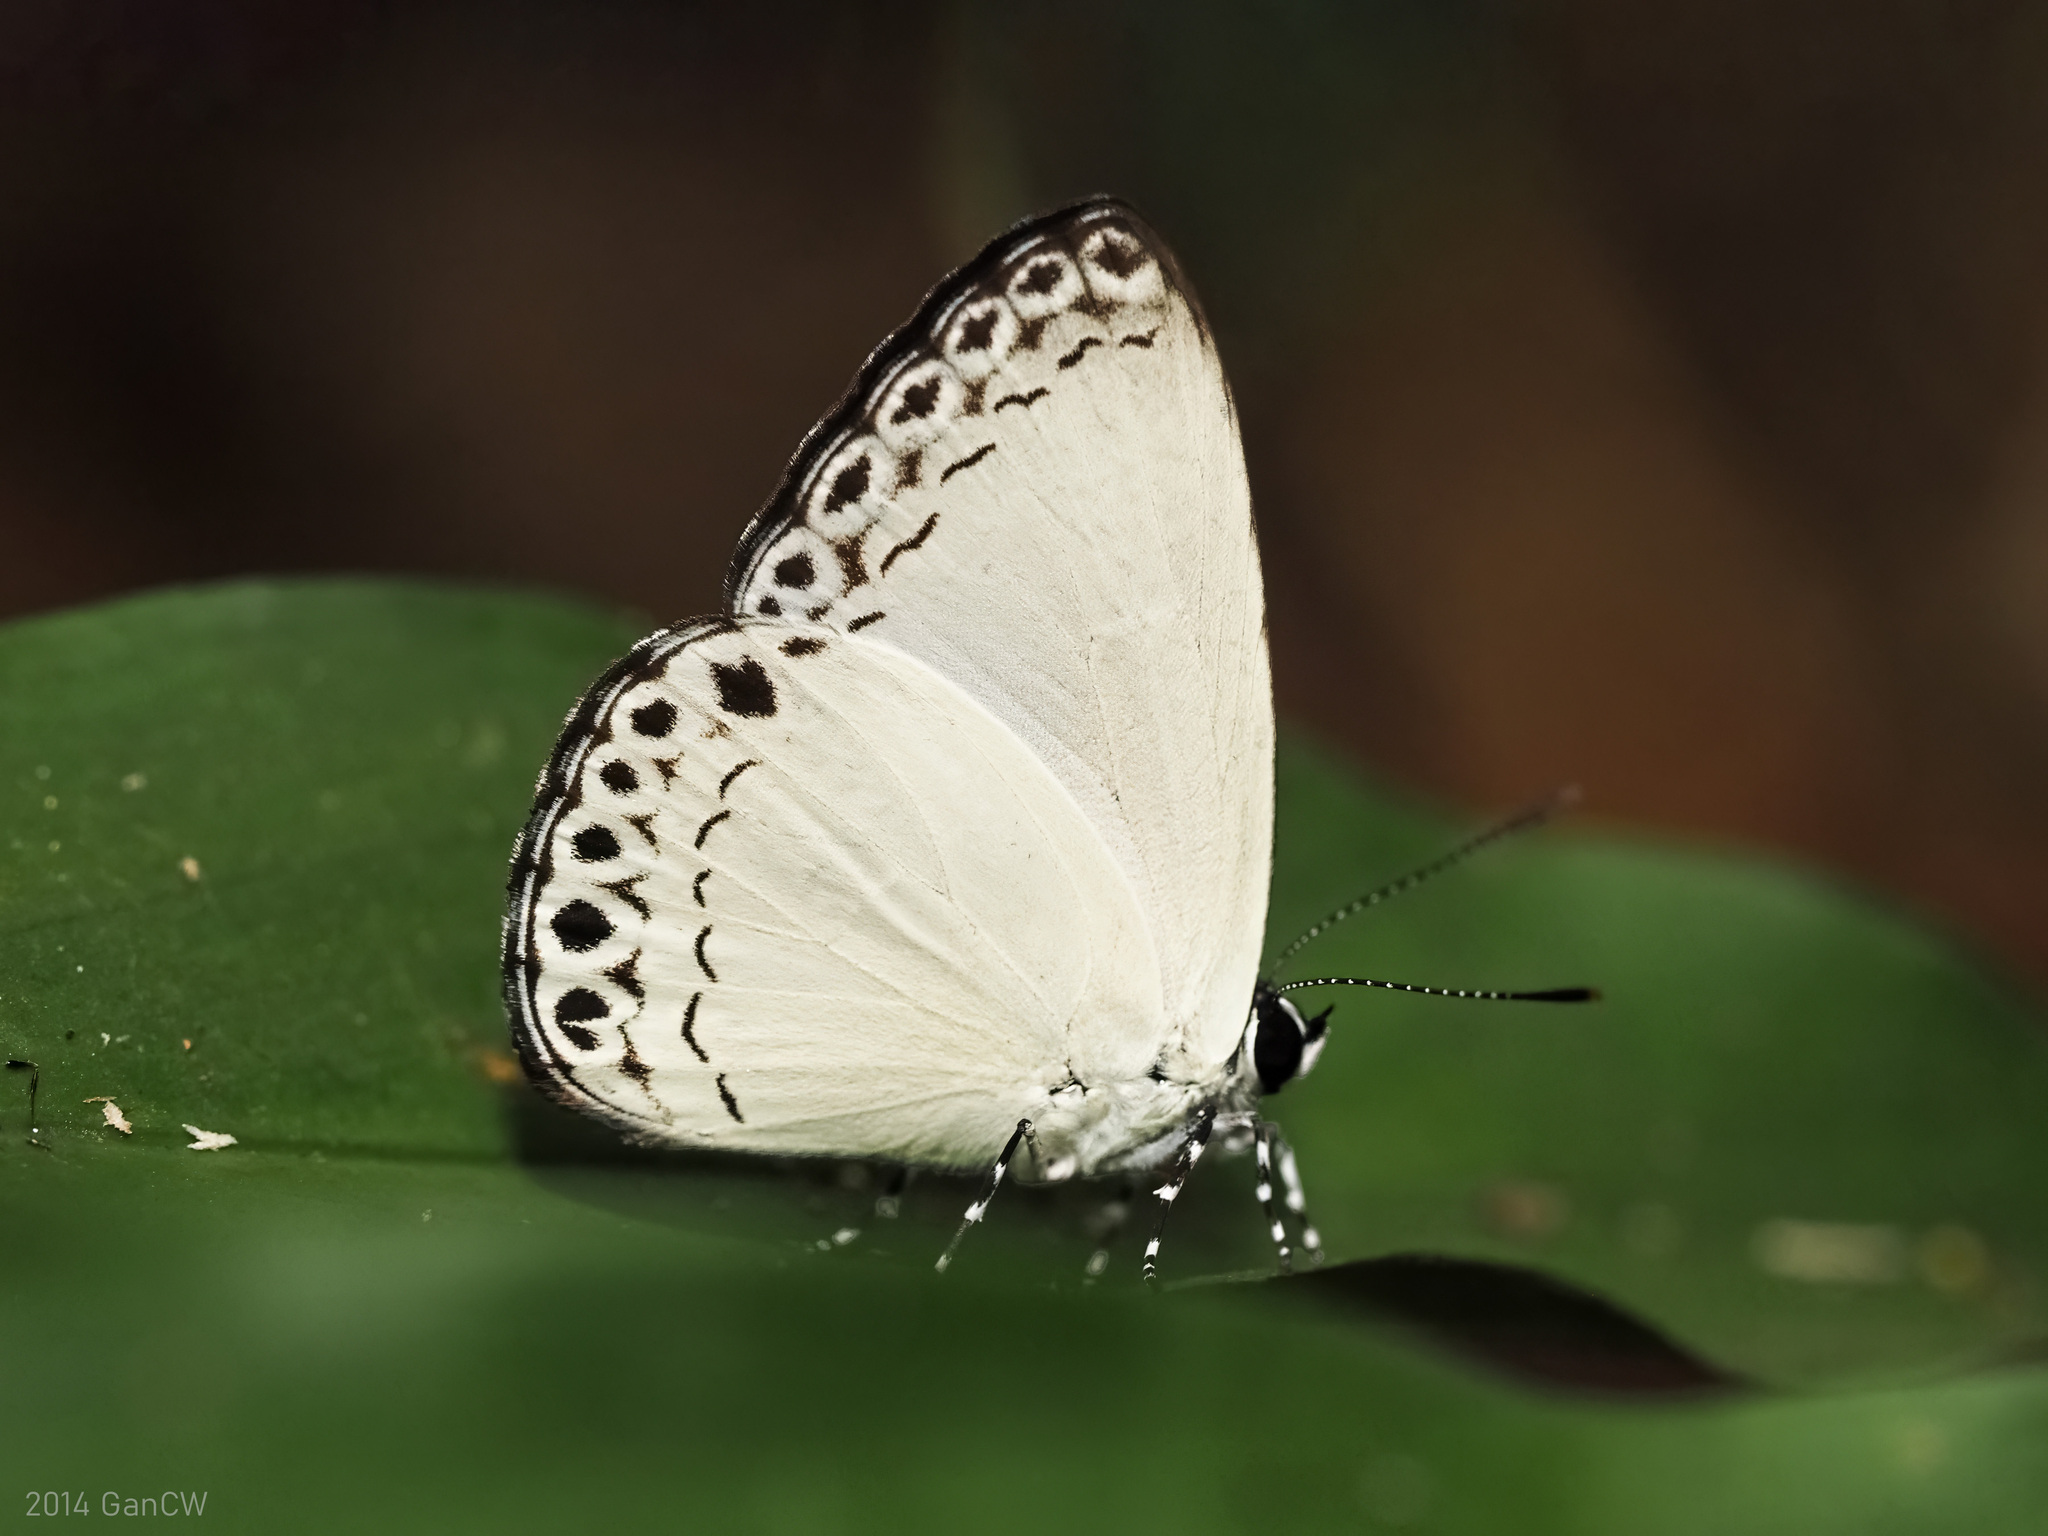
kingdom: Animalia
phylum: Arthropoda
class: Insecta
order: Lepidoptera
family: Lycaenidae
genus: Lycaenopsis
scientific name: Lycaenopsis haraldus
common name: Felder's hedge blue
